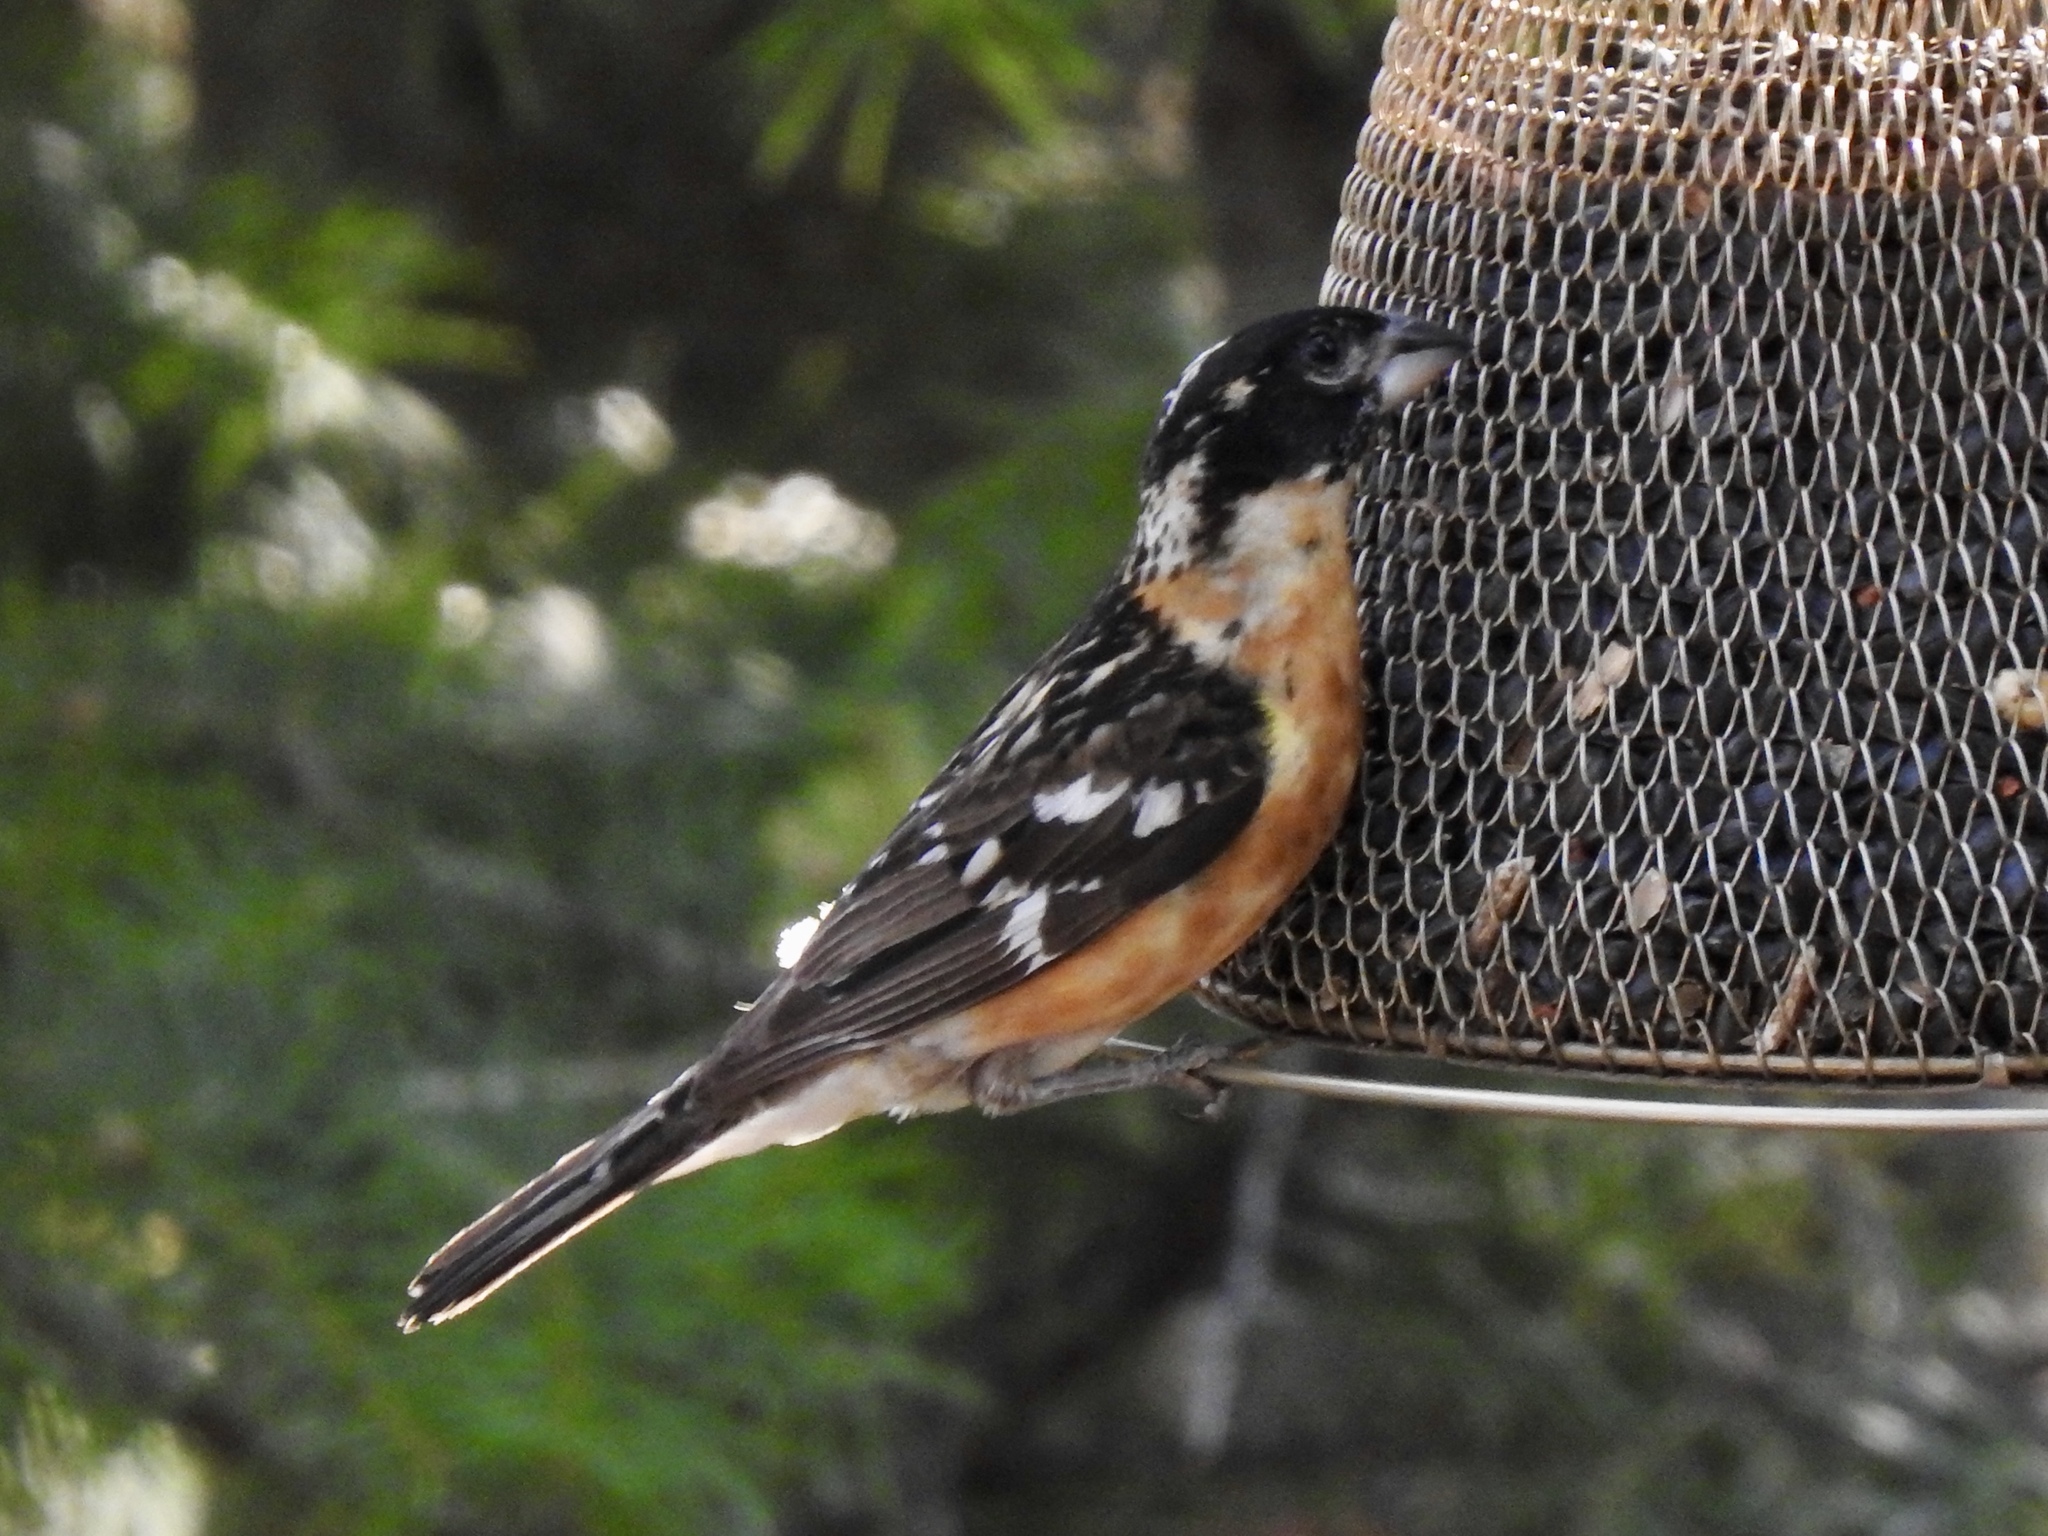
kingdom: Animalia
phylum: Chordata
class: Aves
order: Passeriformes
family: Cardinalidae
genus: Pheucticus
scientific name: Pheucticus melanocephalus
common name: Black-headed grosbeak
